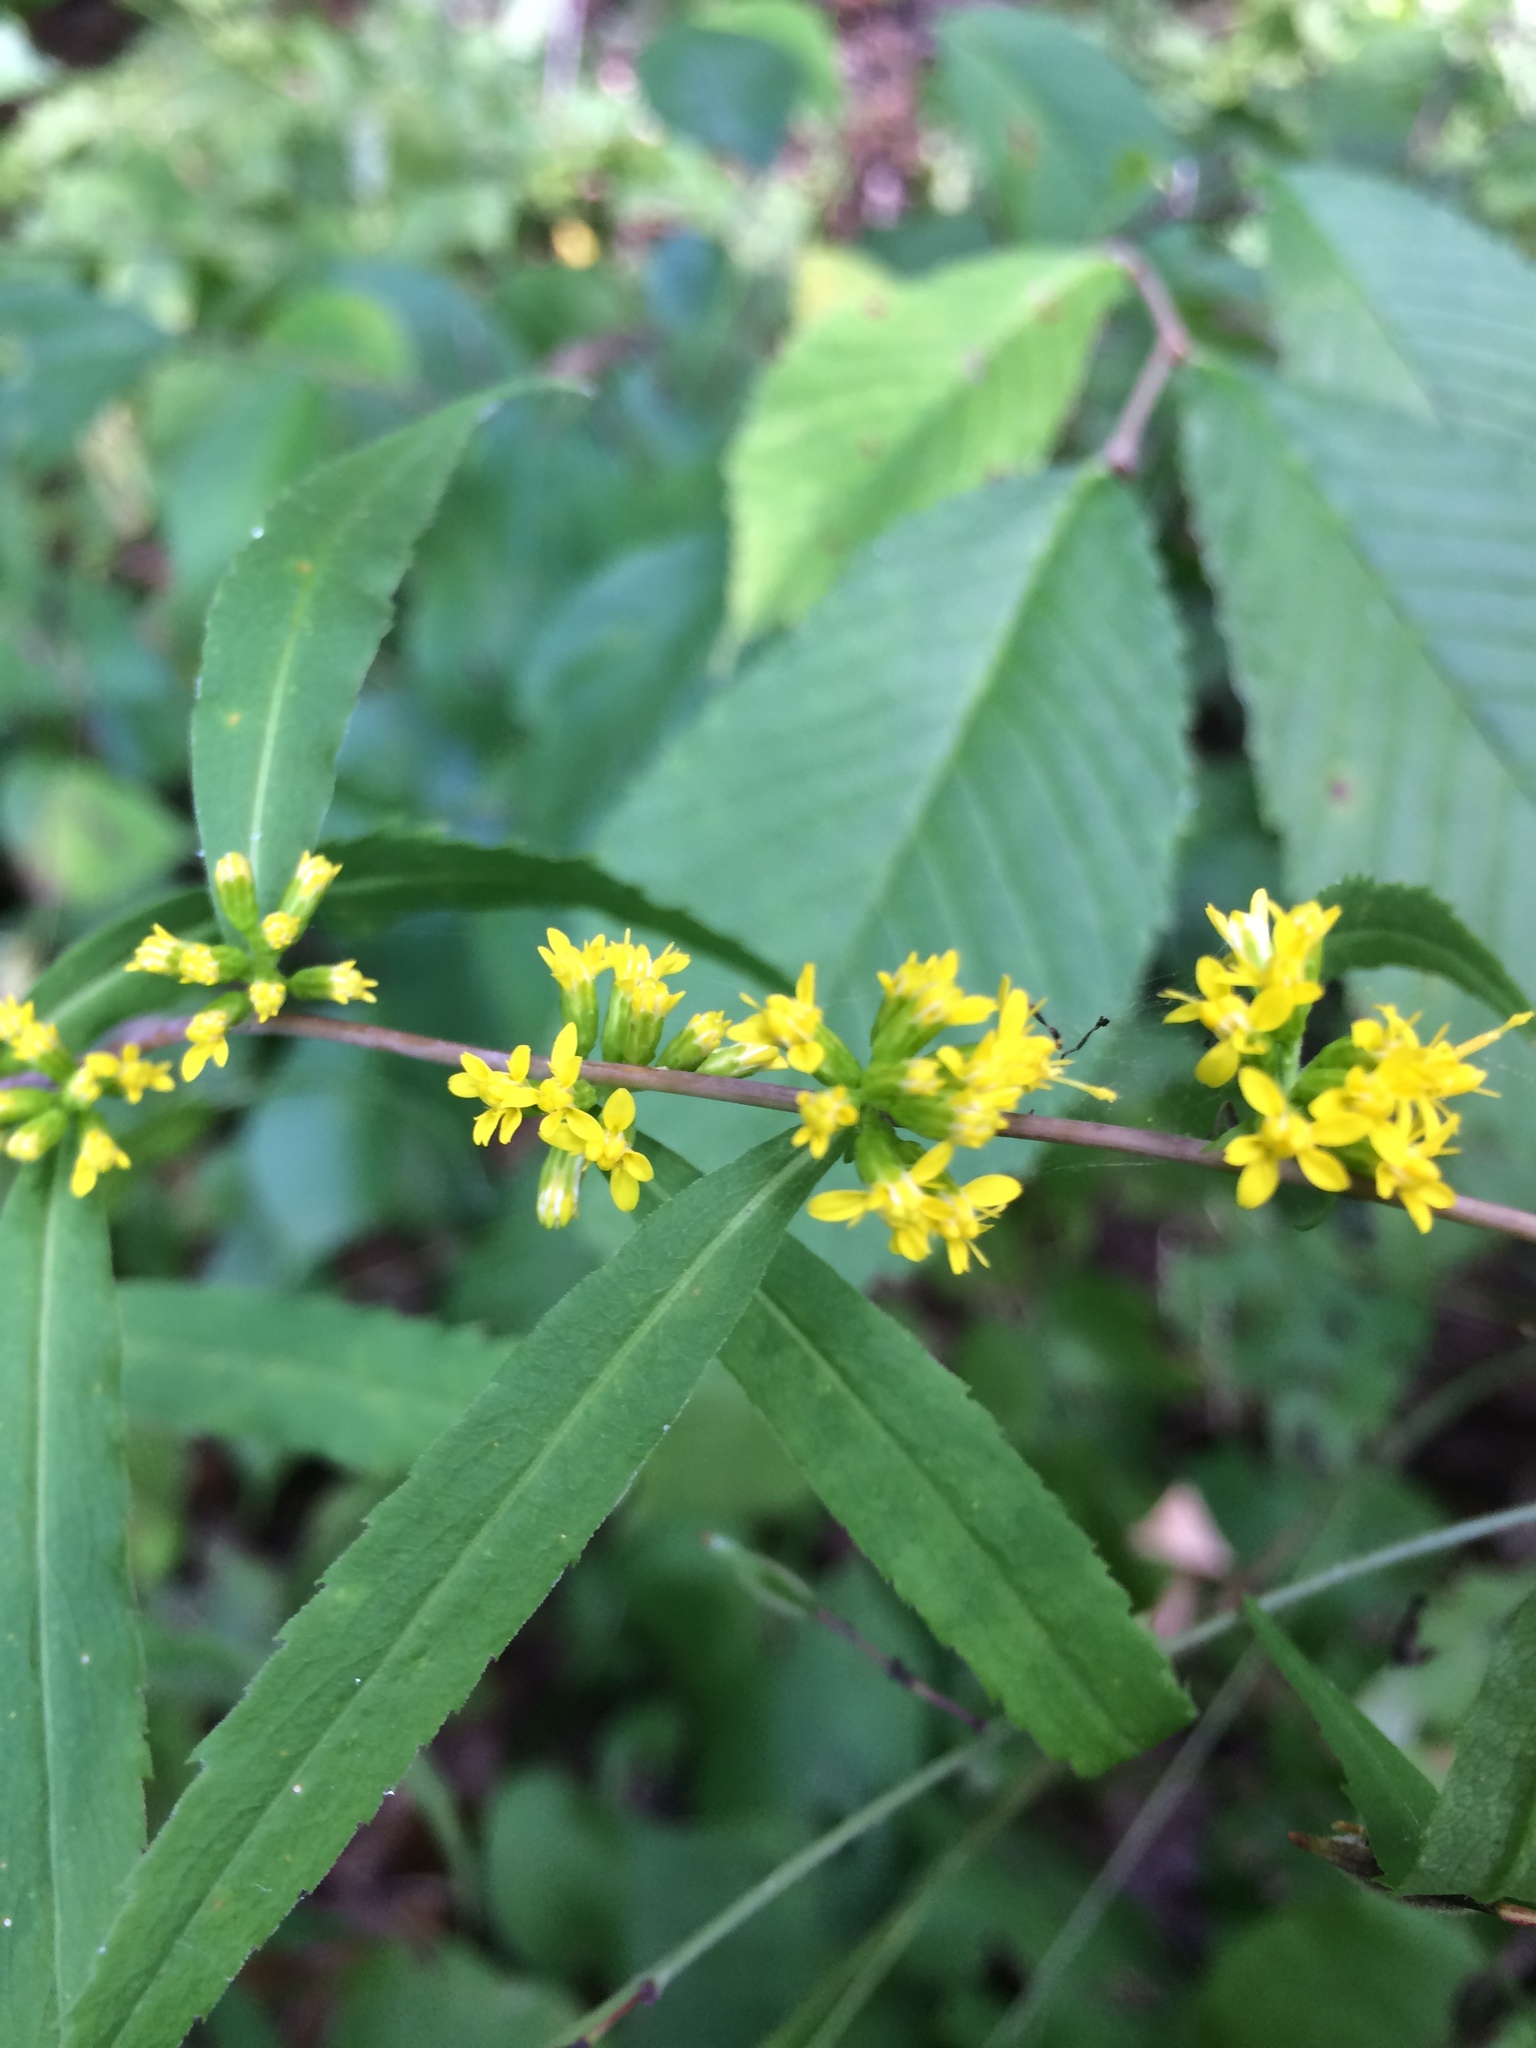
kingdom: Plantae
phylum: Tracheophyta
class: Magnoliopsida
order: Asterales
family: Asteraceae
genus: Solidago
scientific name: Solidago caesia
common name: Woodland goldenrod
